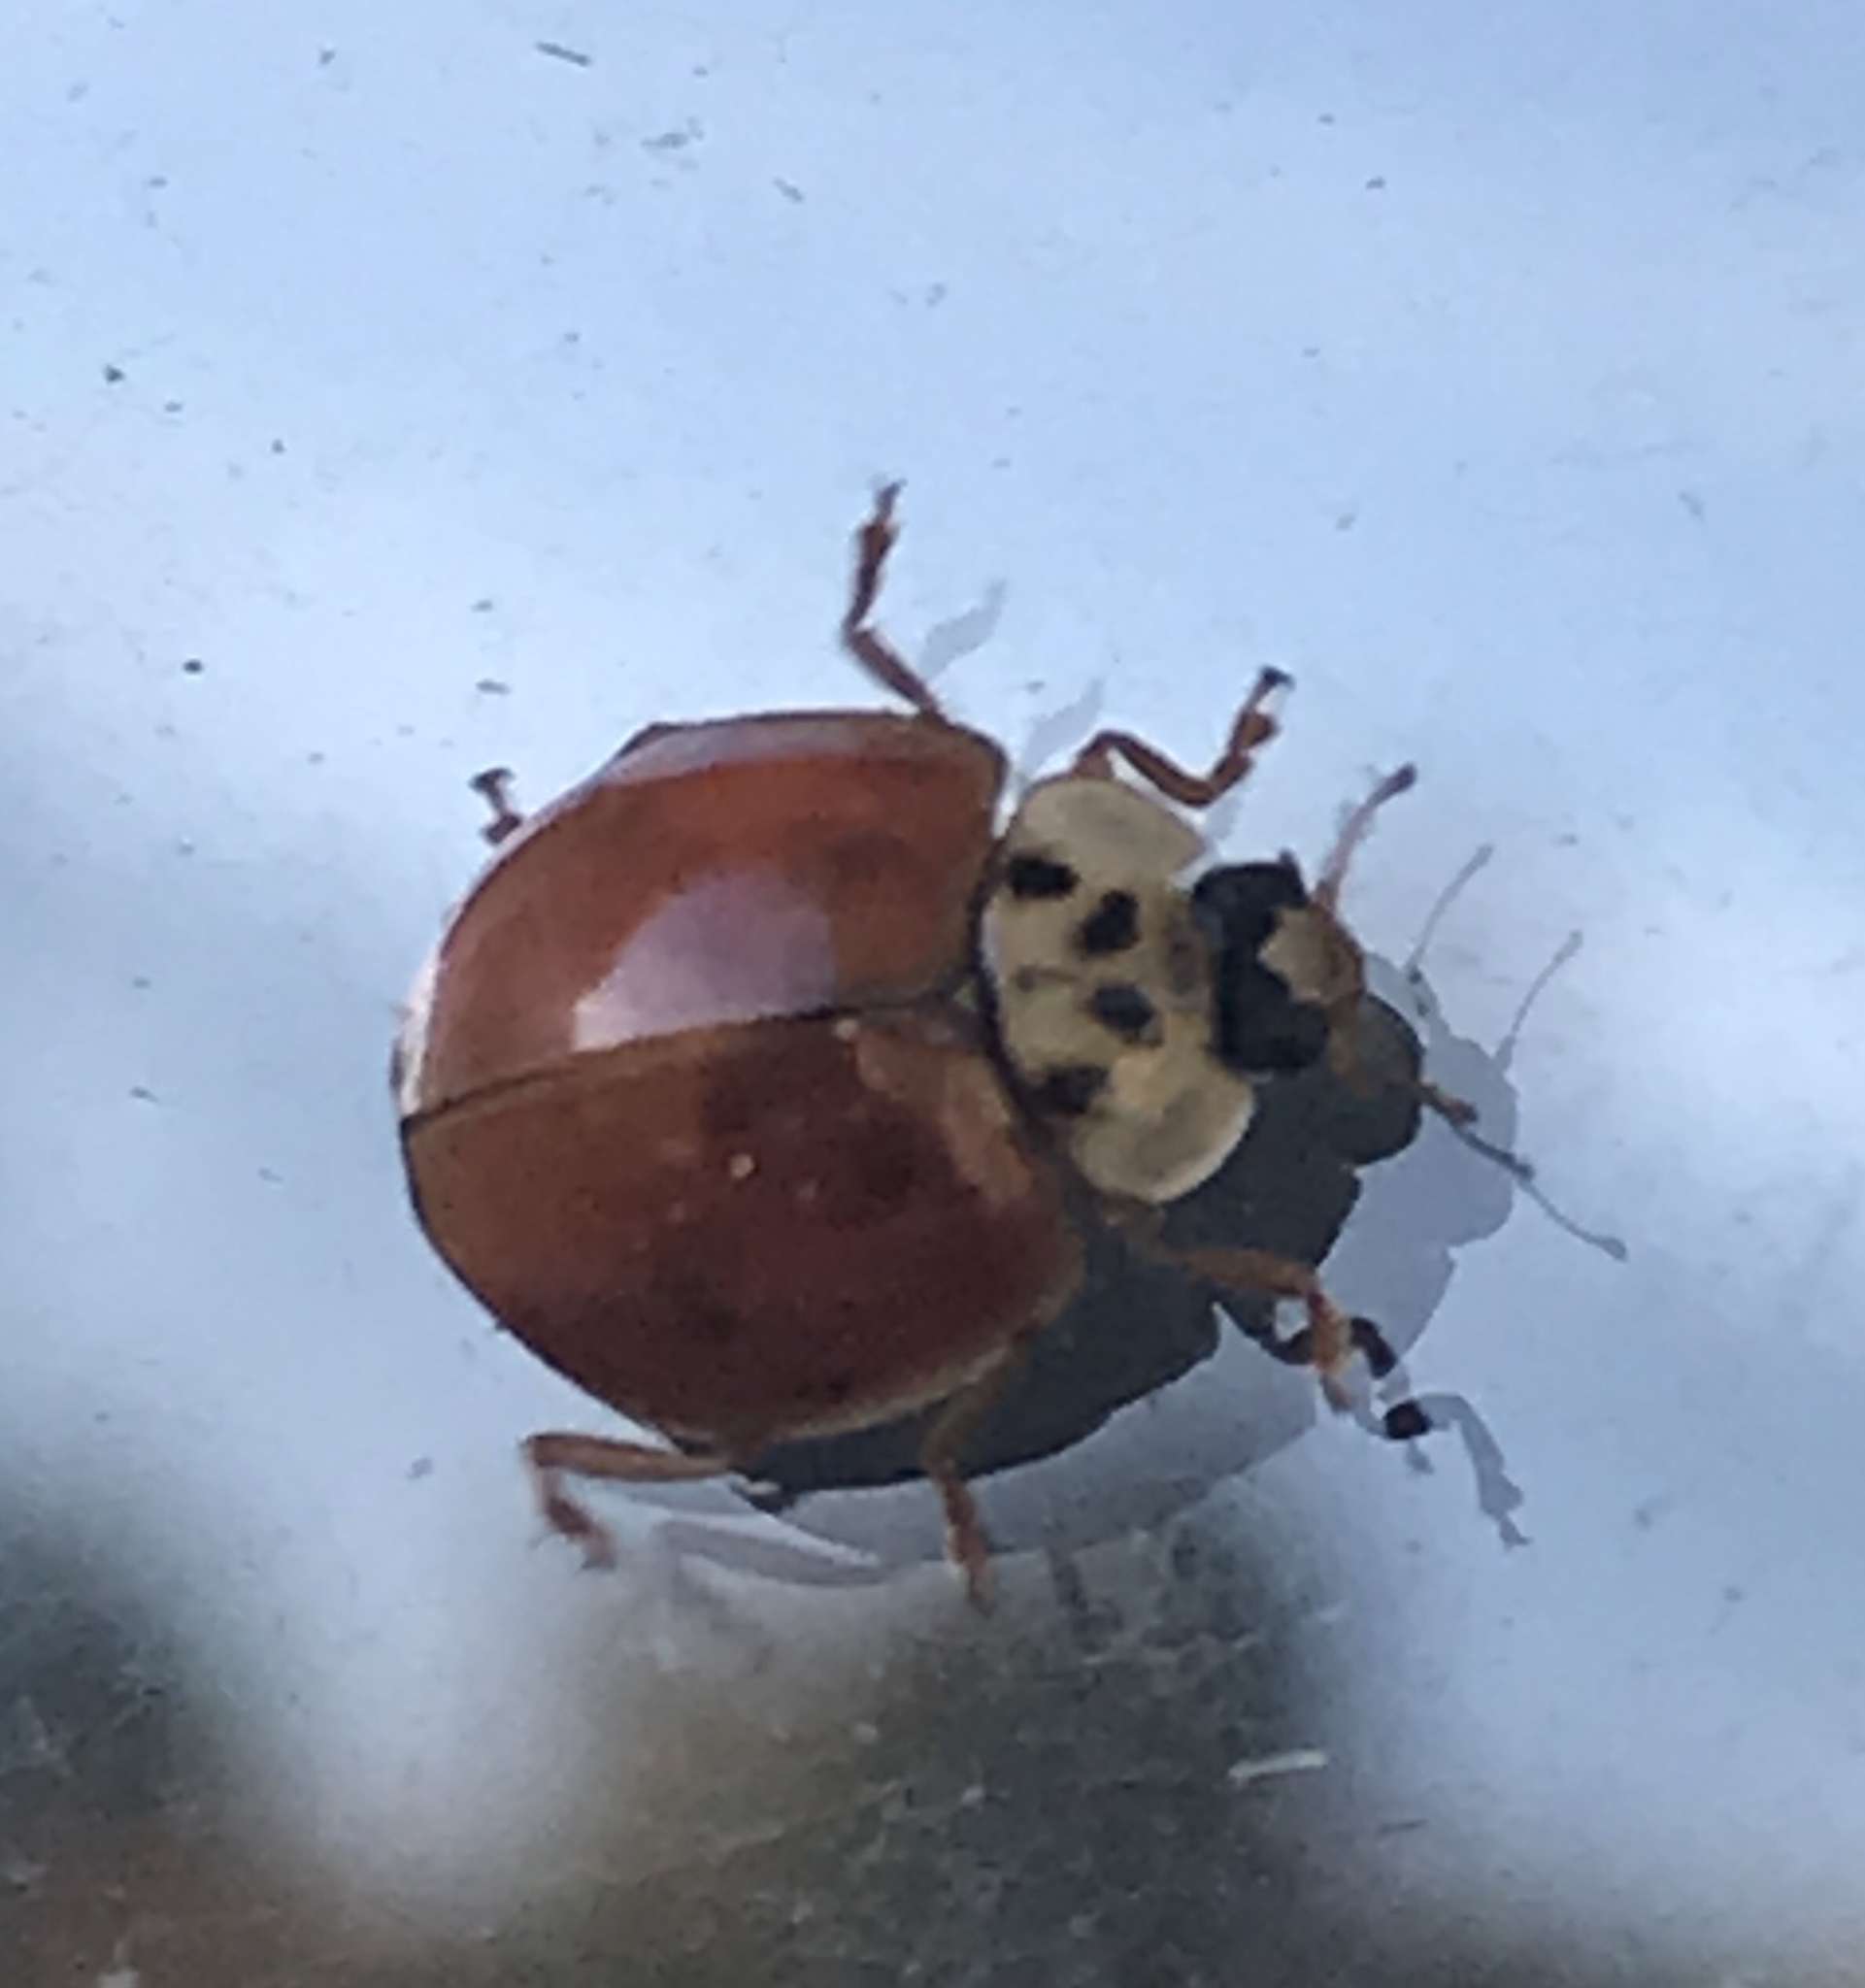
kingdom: Animalia
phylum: Arthropoda
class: Insecta
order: Coleoptera
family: Coccinellidae
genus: Harmonia
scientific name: Harmonia axyridis
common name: Harlequin ladybird
